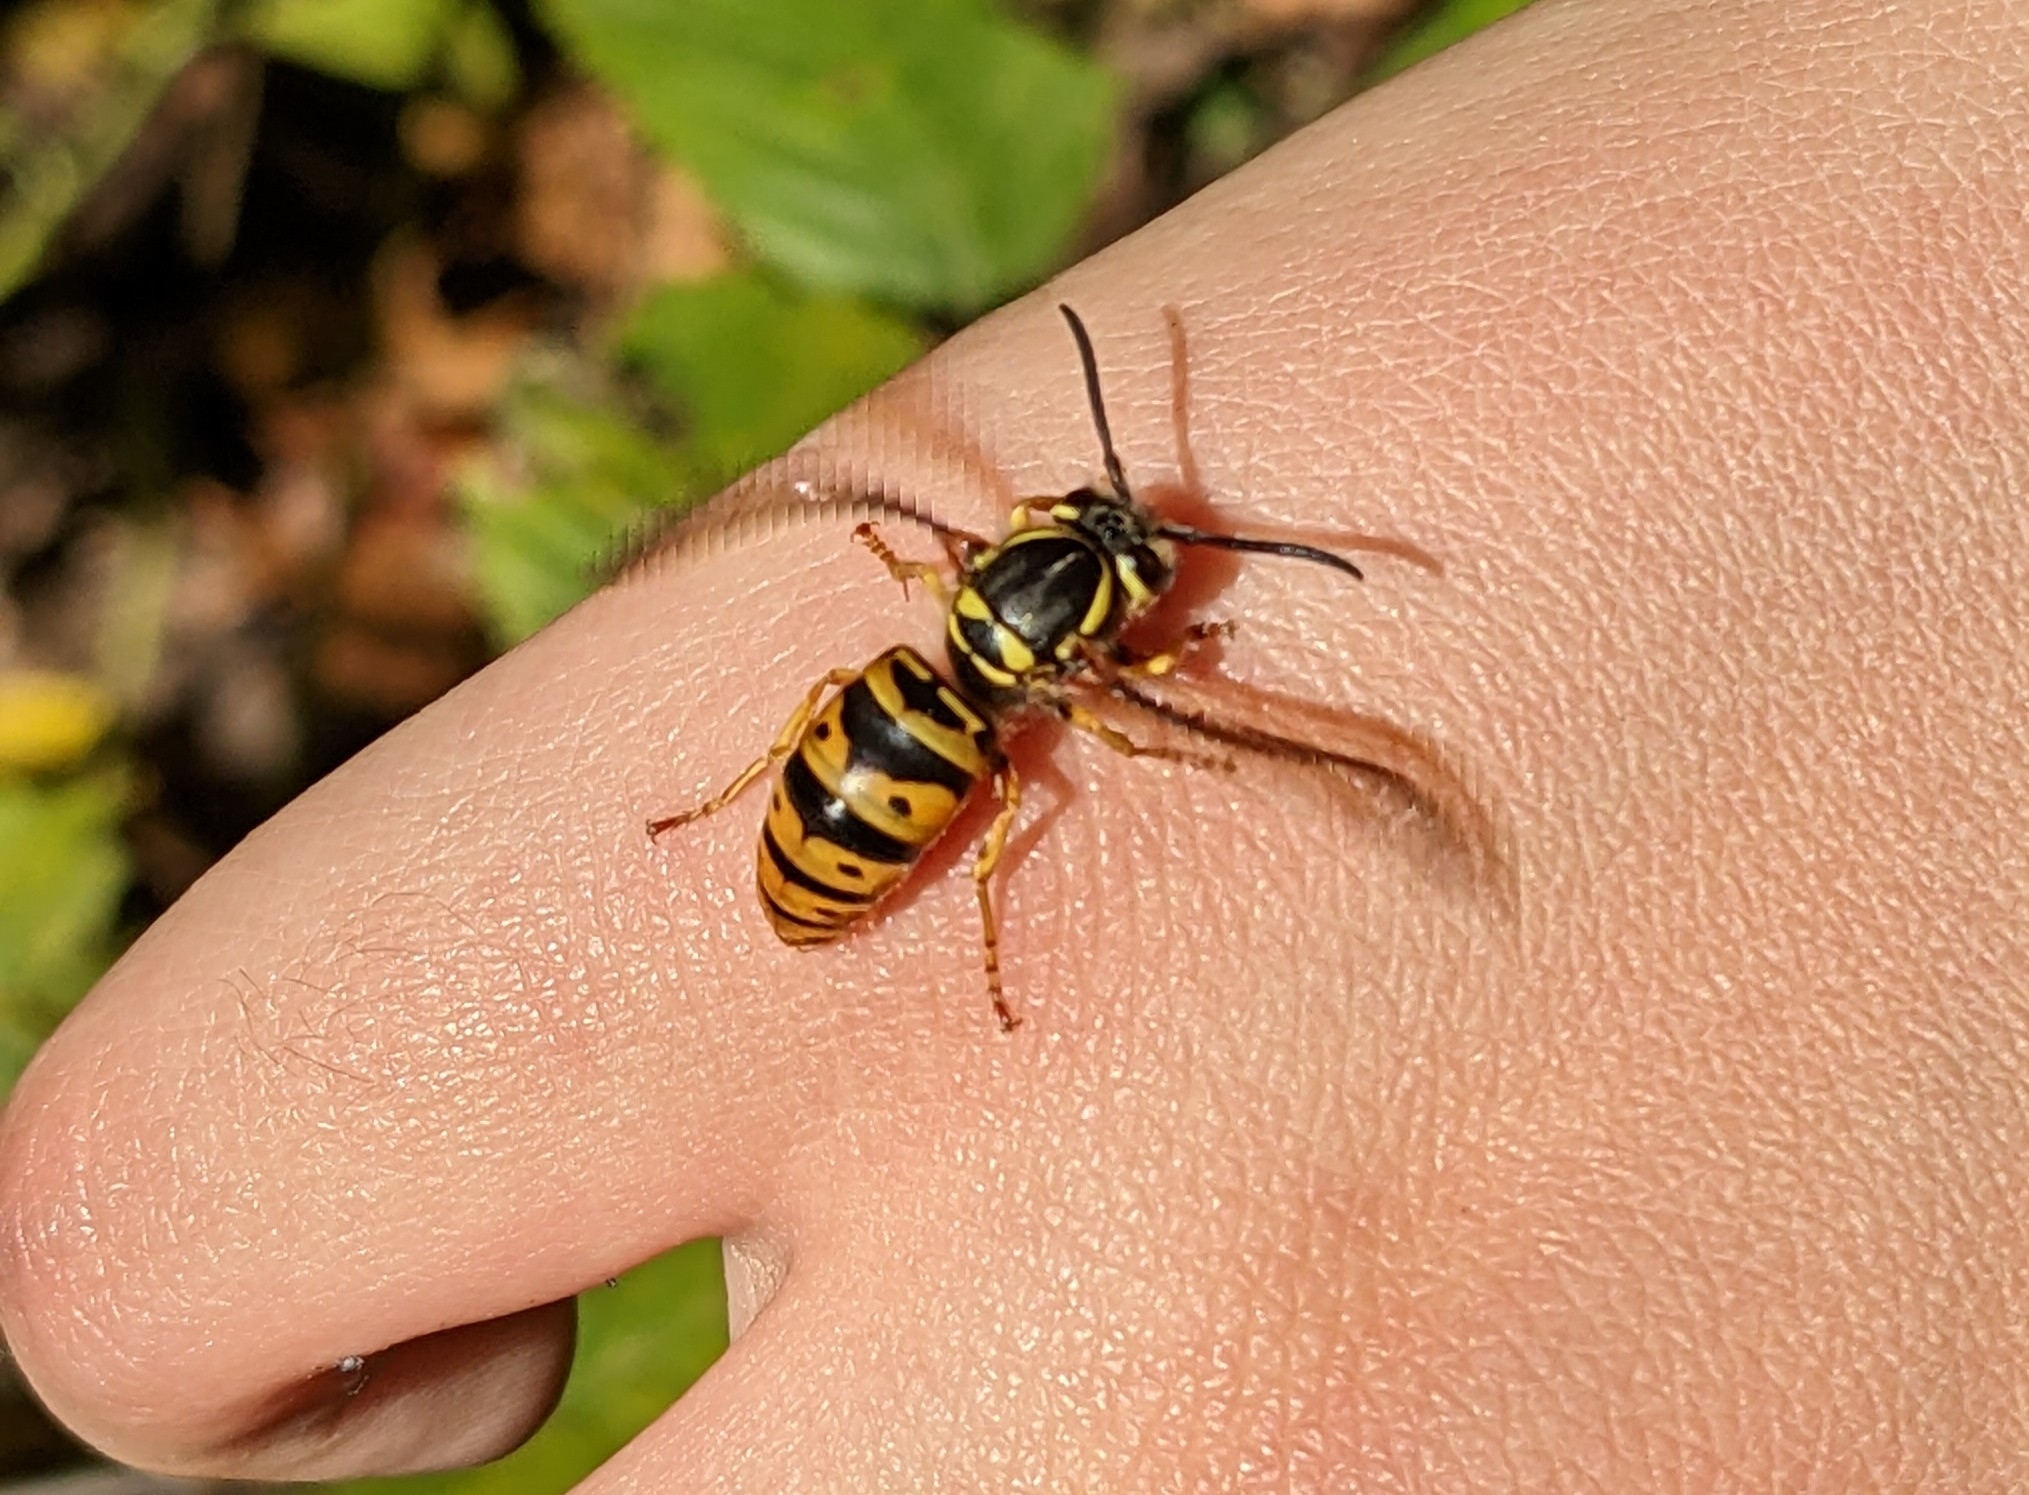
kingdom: Animalia
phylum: Arthropoda
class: Insecta
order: Hymenoptera
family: Vespidae
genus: Vespula
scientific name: Vespula maculifrons
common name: Eastern yellowjacket
